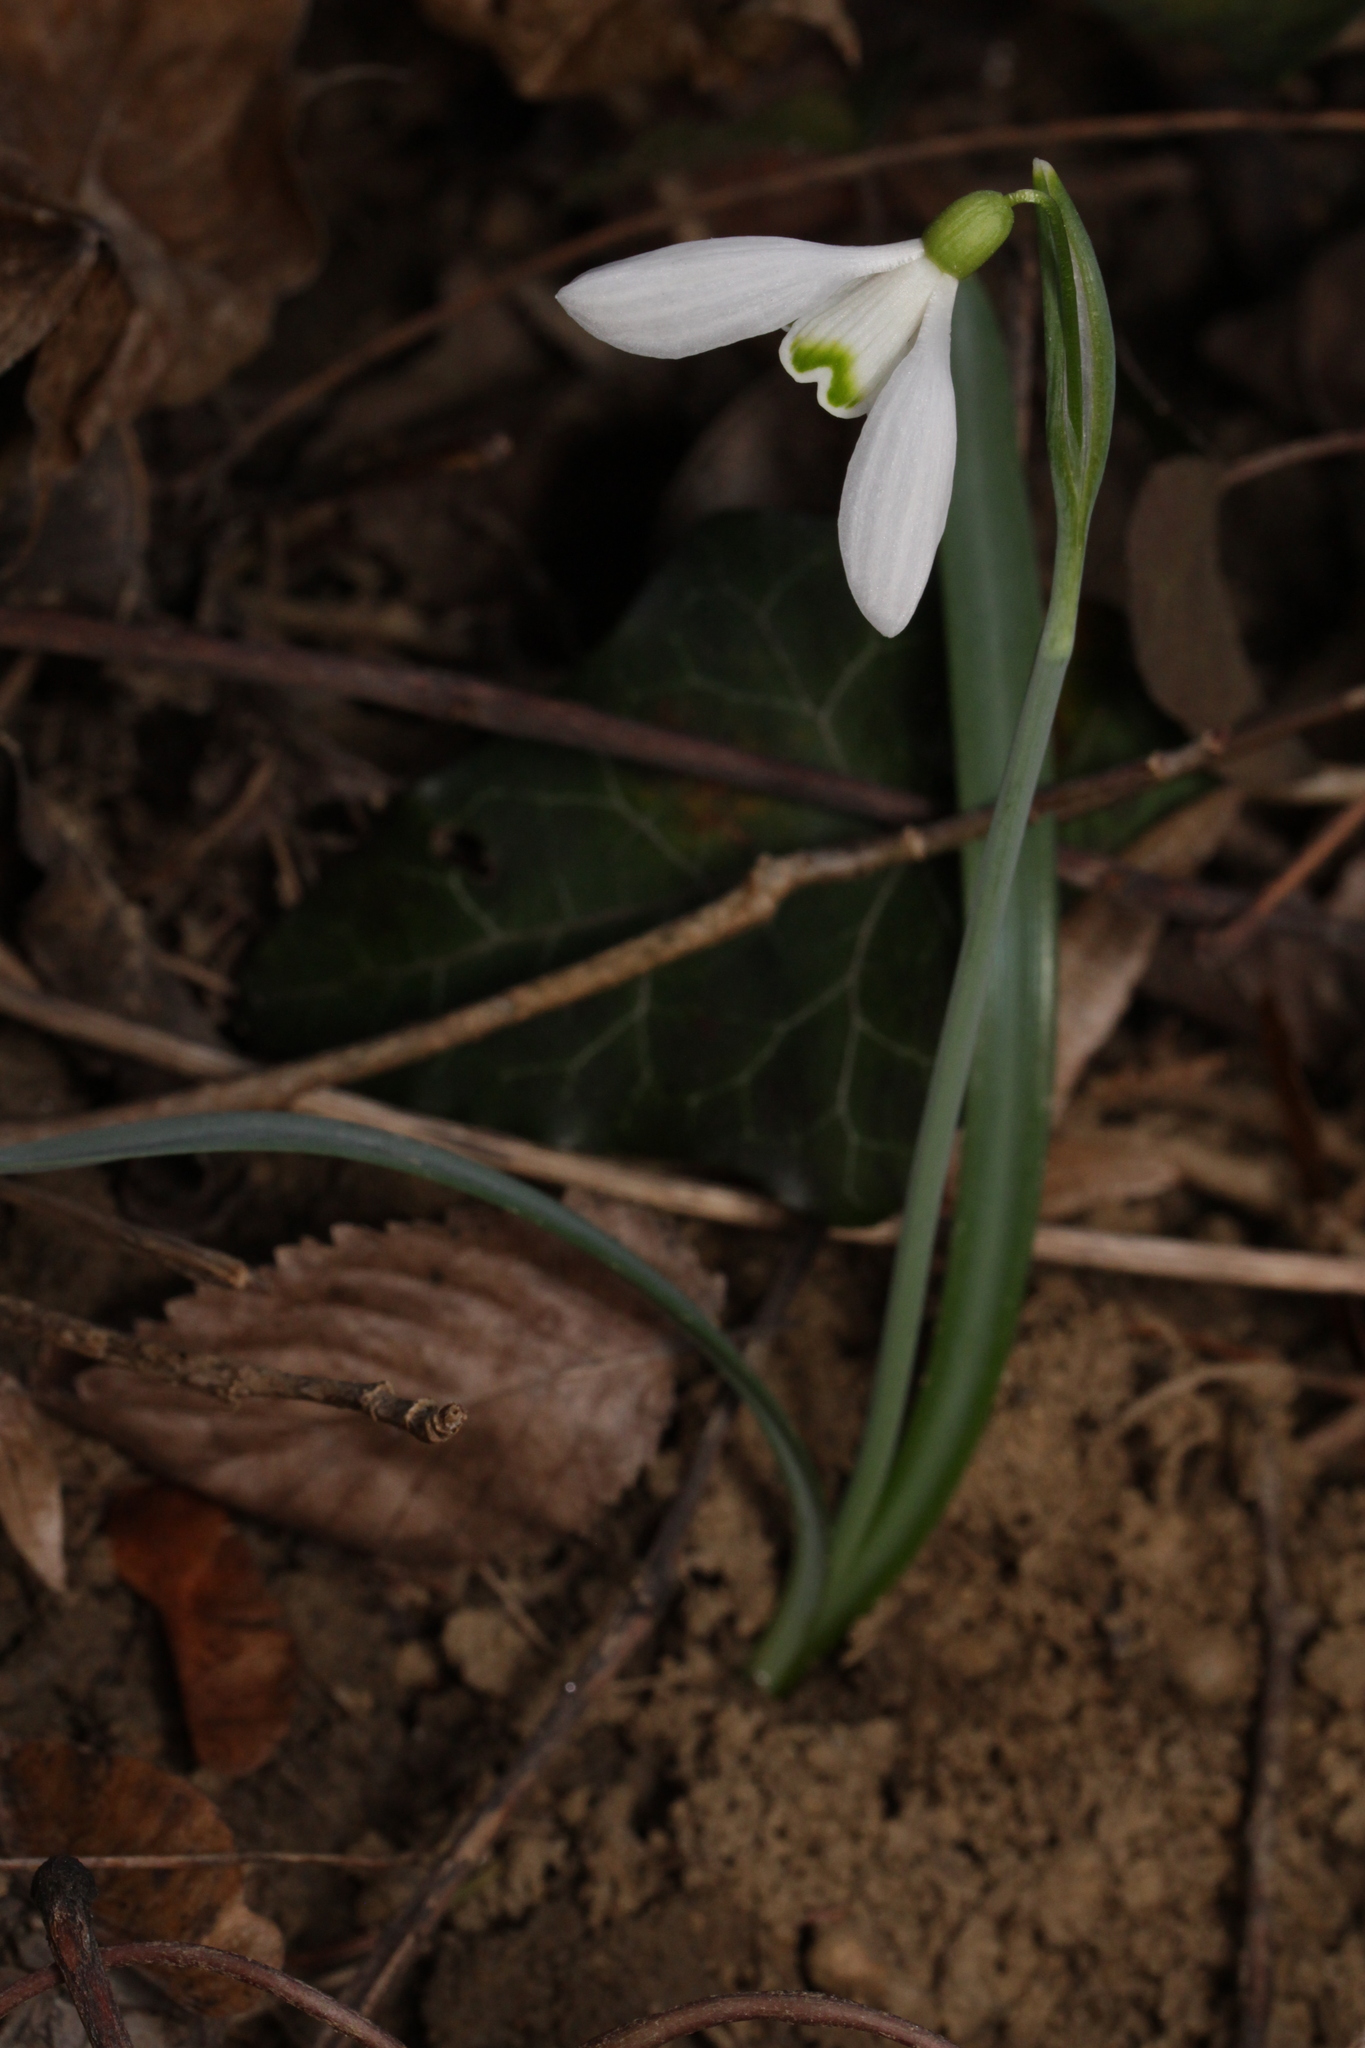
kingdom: Plantae
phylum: Tracheophyta
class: Liliopsida
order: Asparagales
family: Amaryllidaceae
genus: Galanthus
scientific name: Galanthus nivalis
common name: Snowdrop
